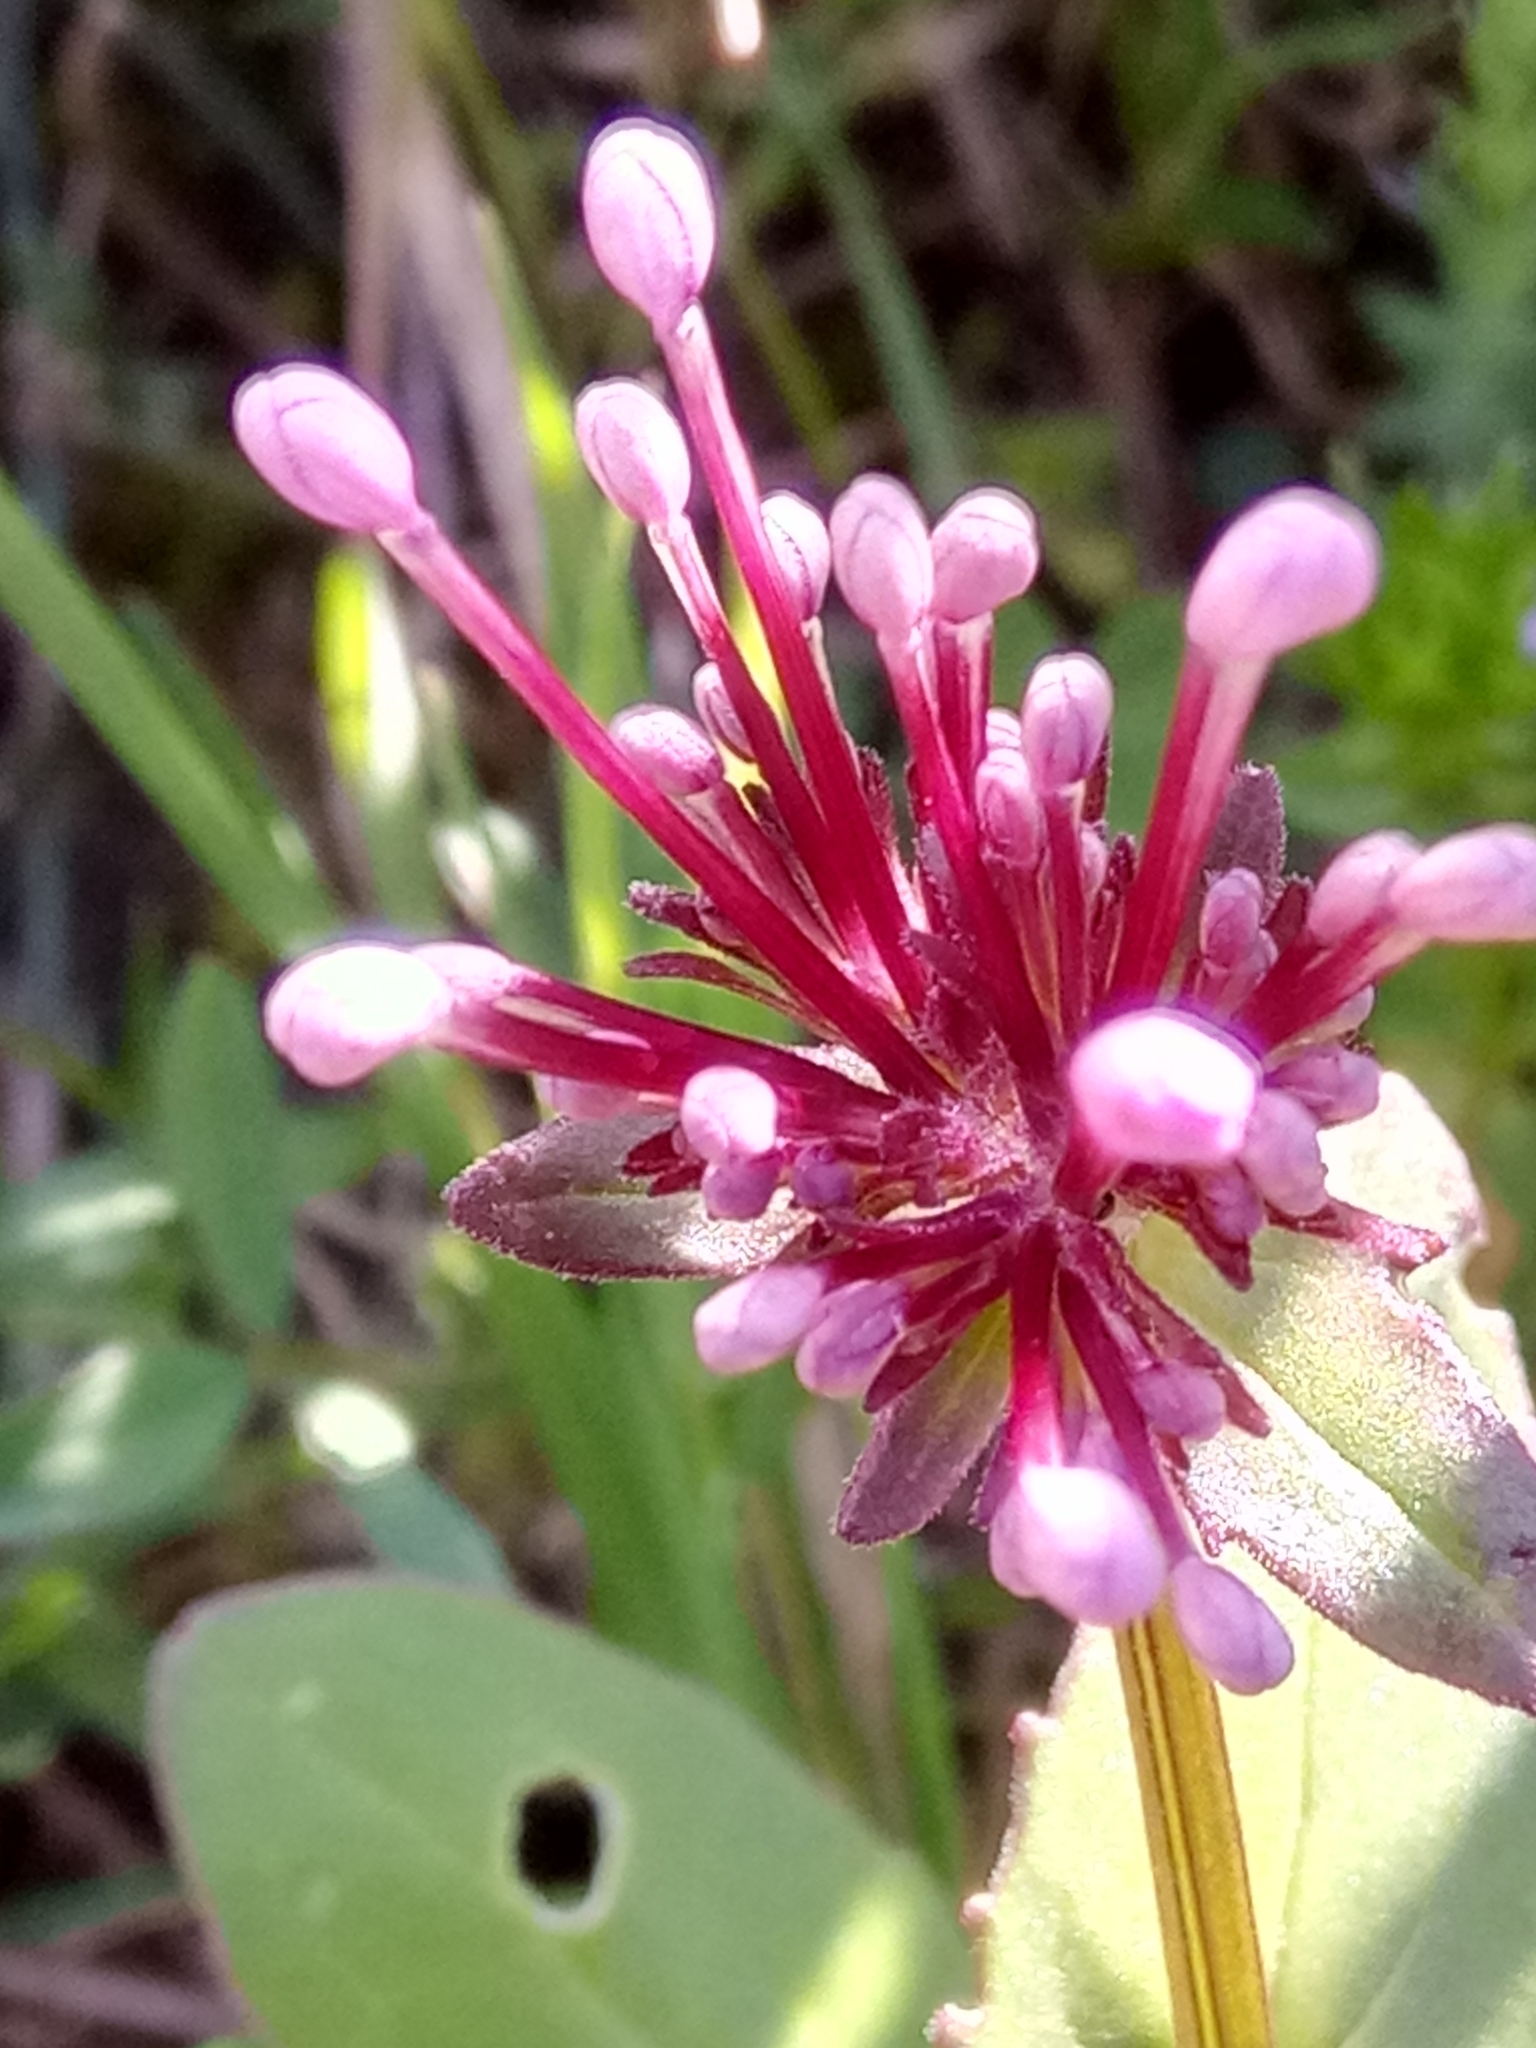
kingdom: Plantae
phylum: Tracheophyta
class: Magnoliopsida
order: Dipsacales
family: Caprifoliaceae
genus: Fedia
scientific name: Fedia graciliflora
